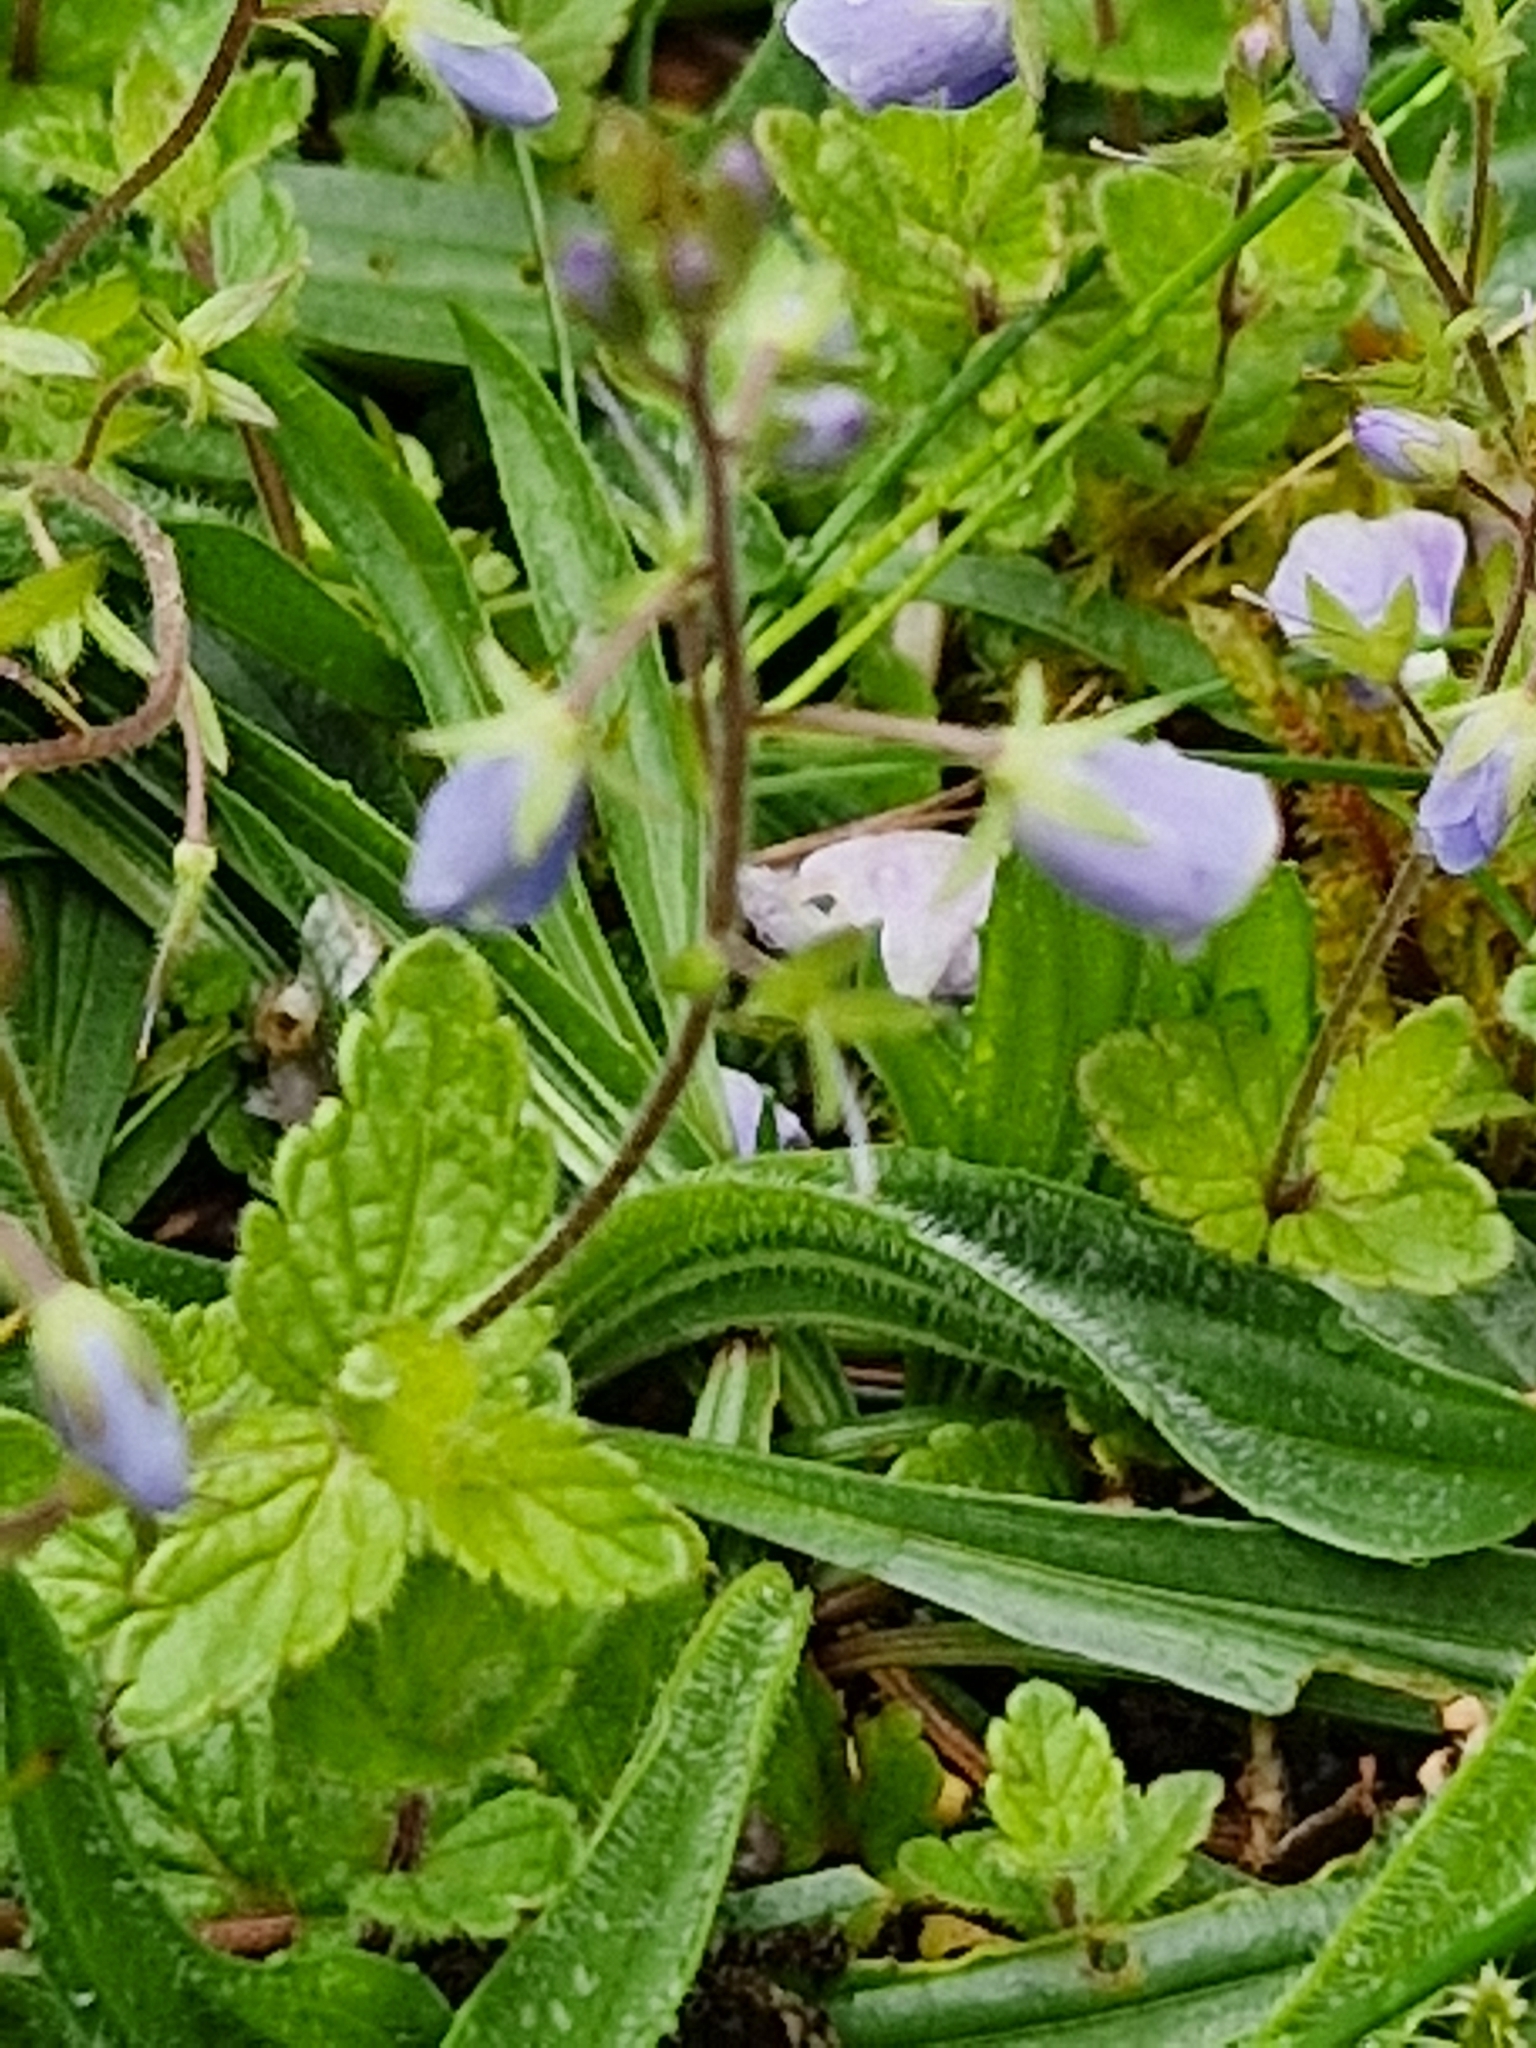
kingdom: Plantae
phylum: Tracheophyta
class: Magnoliopsida
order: Lamiales
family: Plantaginaceae
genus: Veronica
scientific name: Veronica chamaedrys
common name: Germander speedwell
